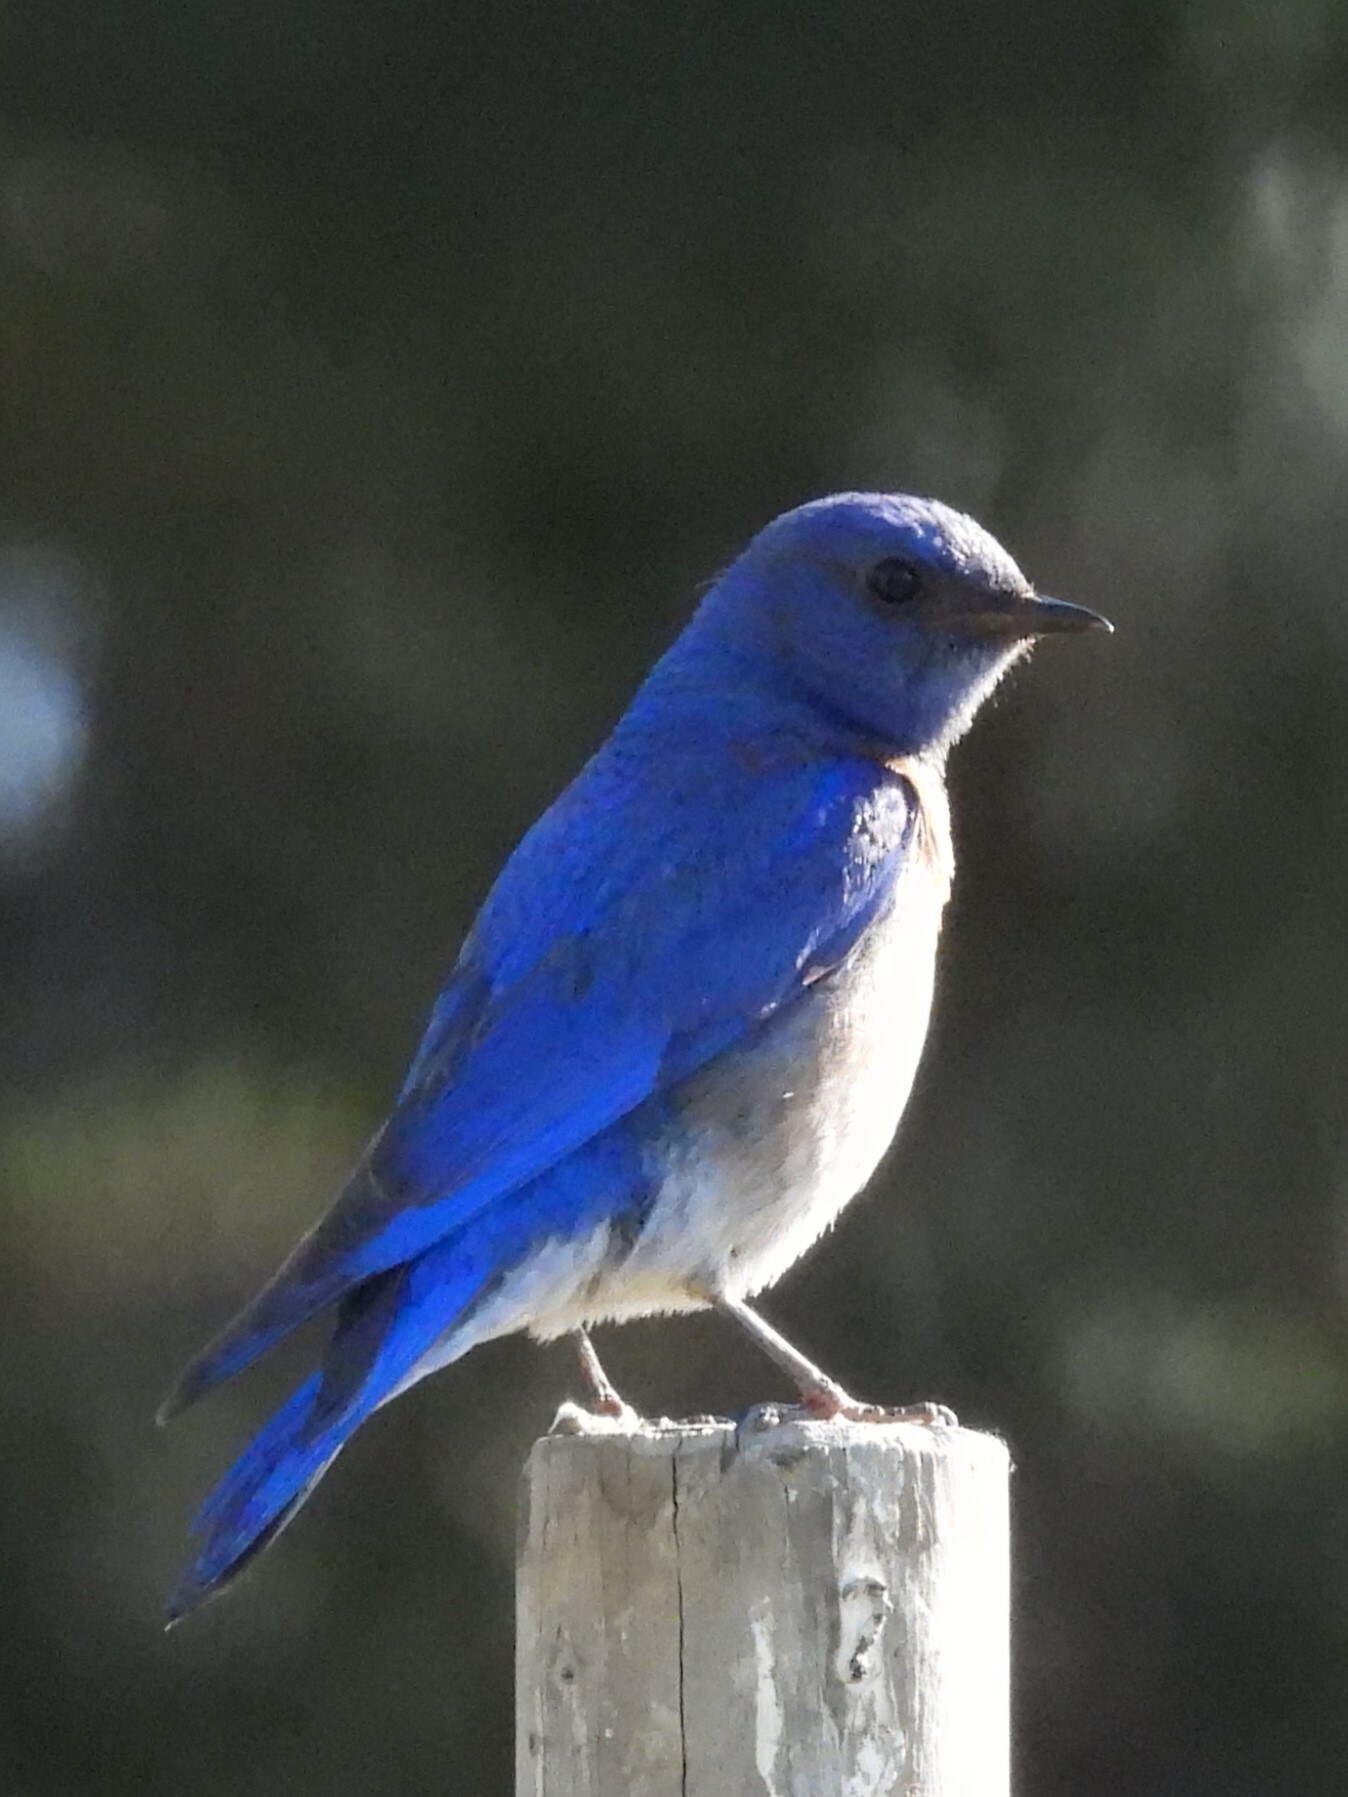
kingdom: Animalia
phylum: Chordata
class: Aves
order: Passeriformes
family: Turdidae
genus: Sialia
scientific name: Sialia mexicana
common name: Western bluebird
